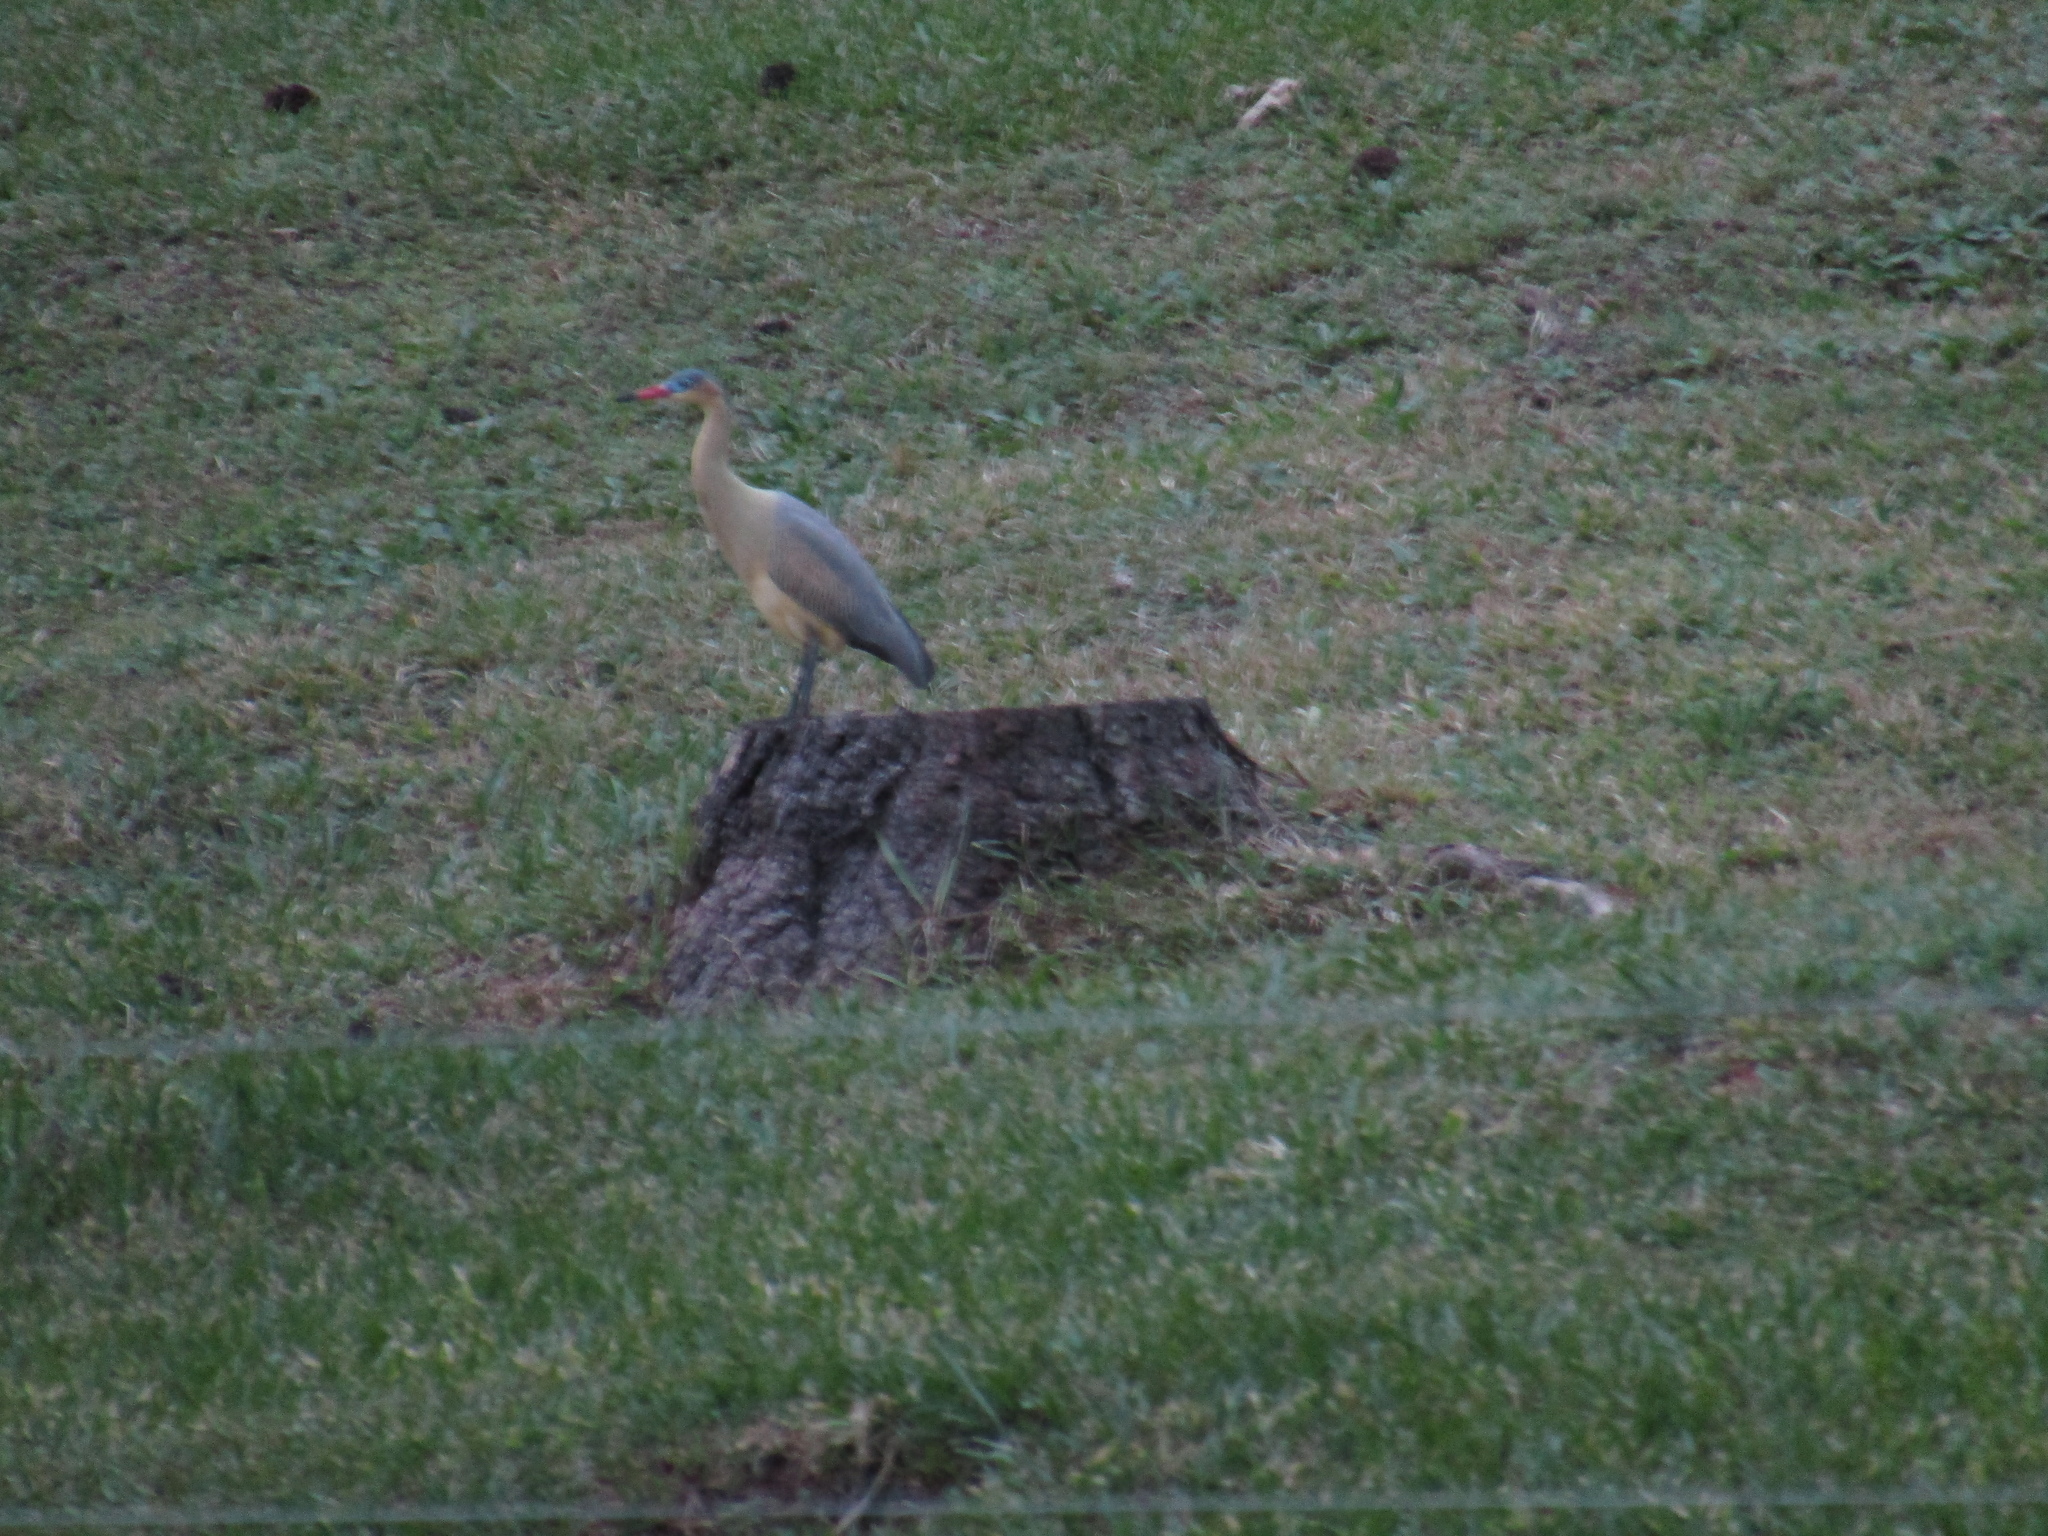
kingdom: Animalia
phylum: Chordata
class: Aves
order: Pelecaniformes
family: Ardeidae
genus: Syrigma
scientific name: Syrigma sibilatrix
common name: Whistling heron
